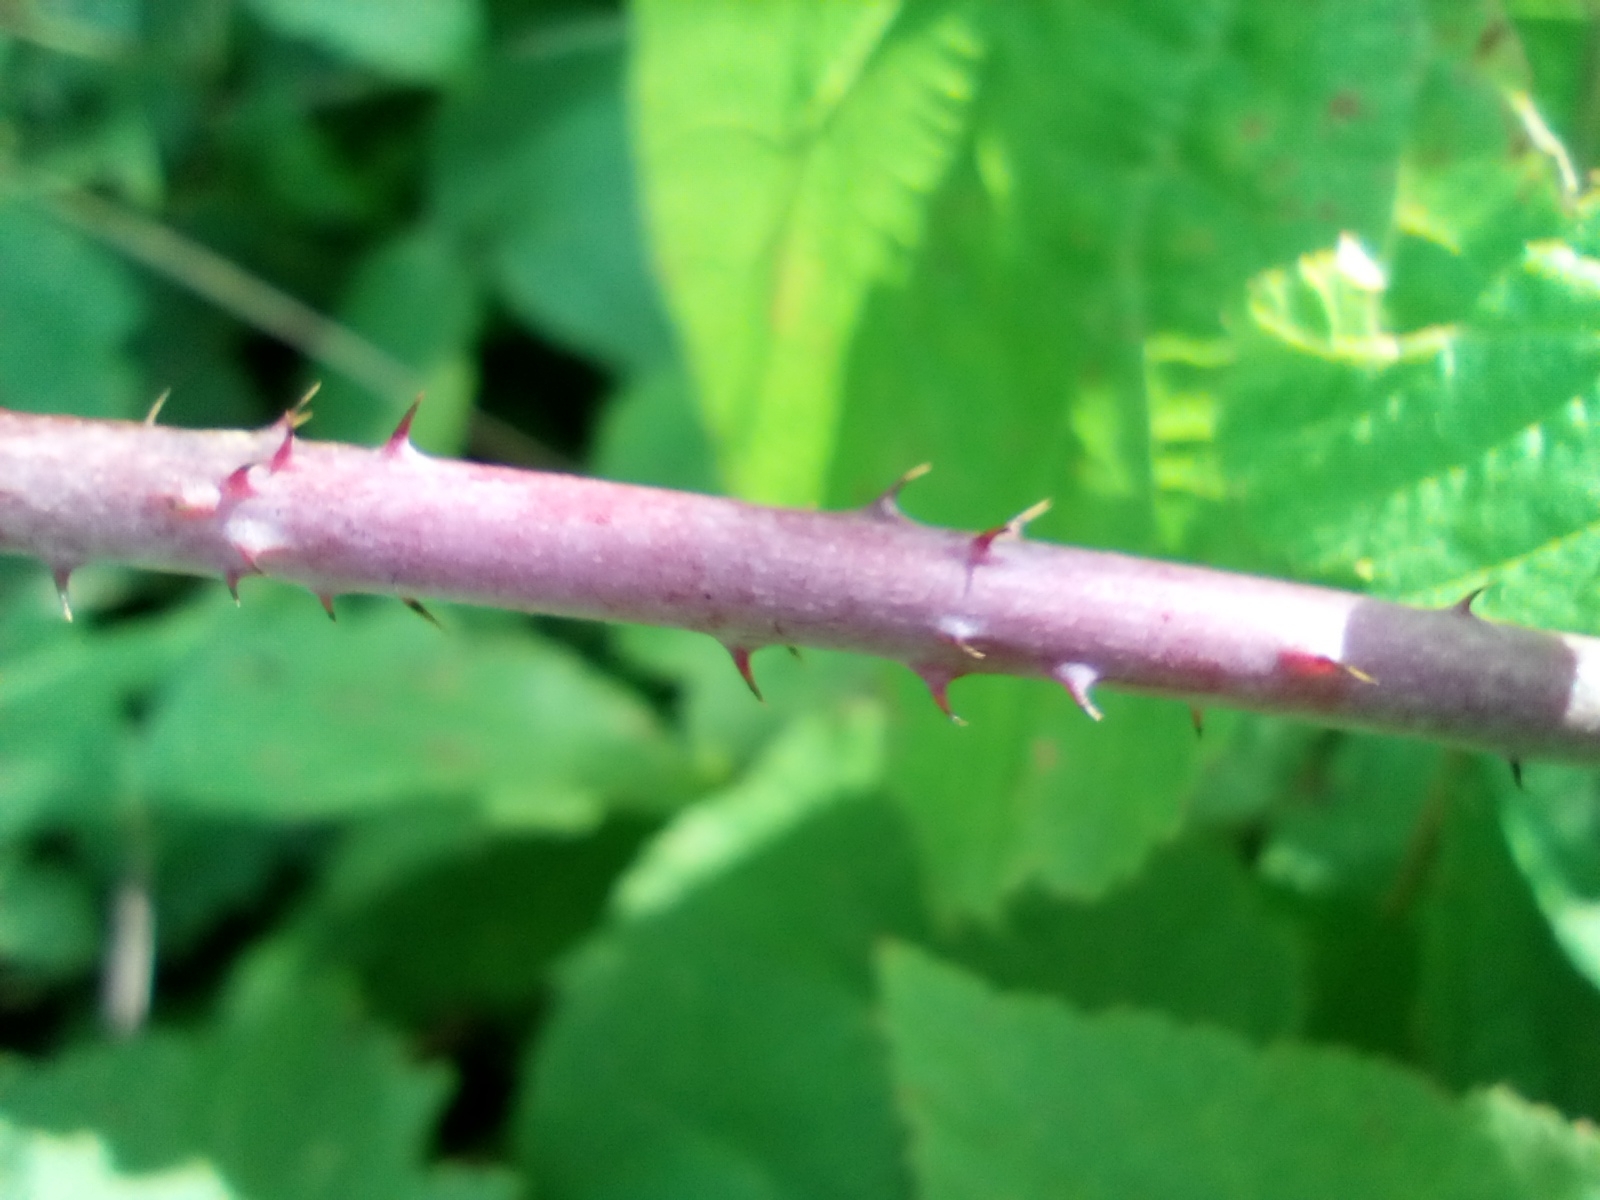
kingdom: Plantae
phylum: Tracheophyta
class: Magnoliopsida
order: Rosales
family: Rosaceae
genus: Rubus
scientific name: Rubus caesius
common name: Dewberry
